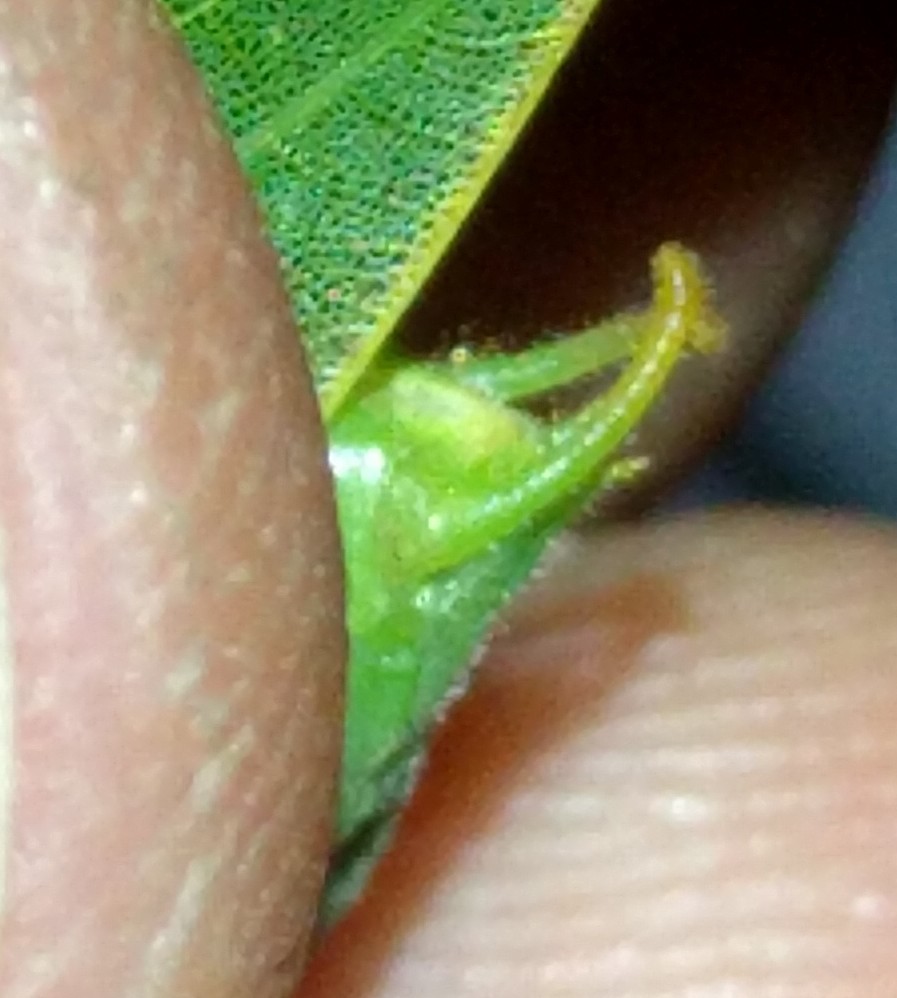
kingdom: Animalia
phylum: Arthropoda
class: Insecta
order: Orthoptera
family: Tettigoniidae
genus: Microcentrum
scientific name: Microcentrum californicum
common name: California angle-wing
